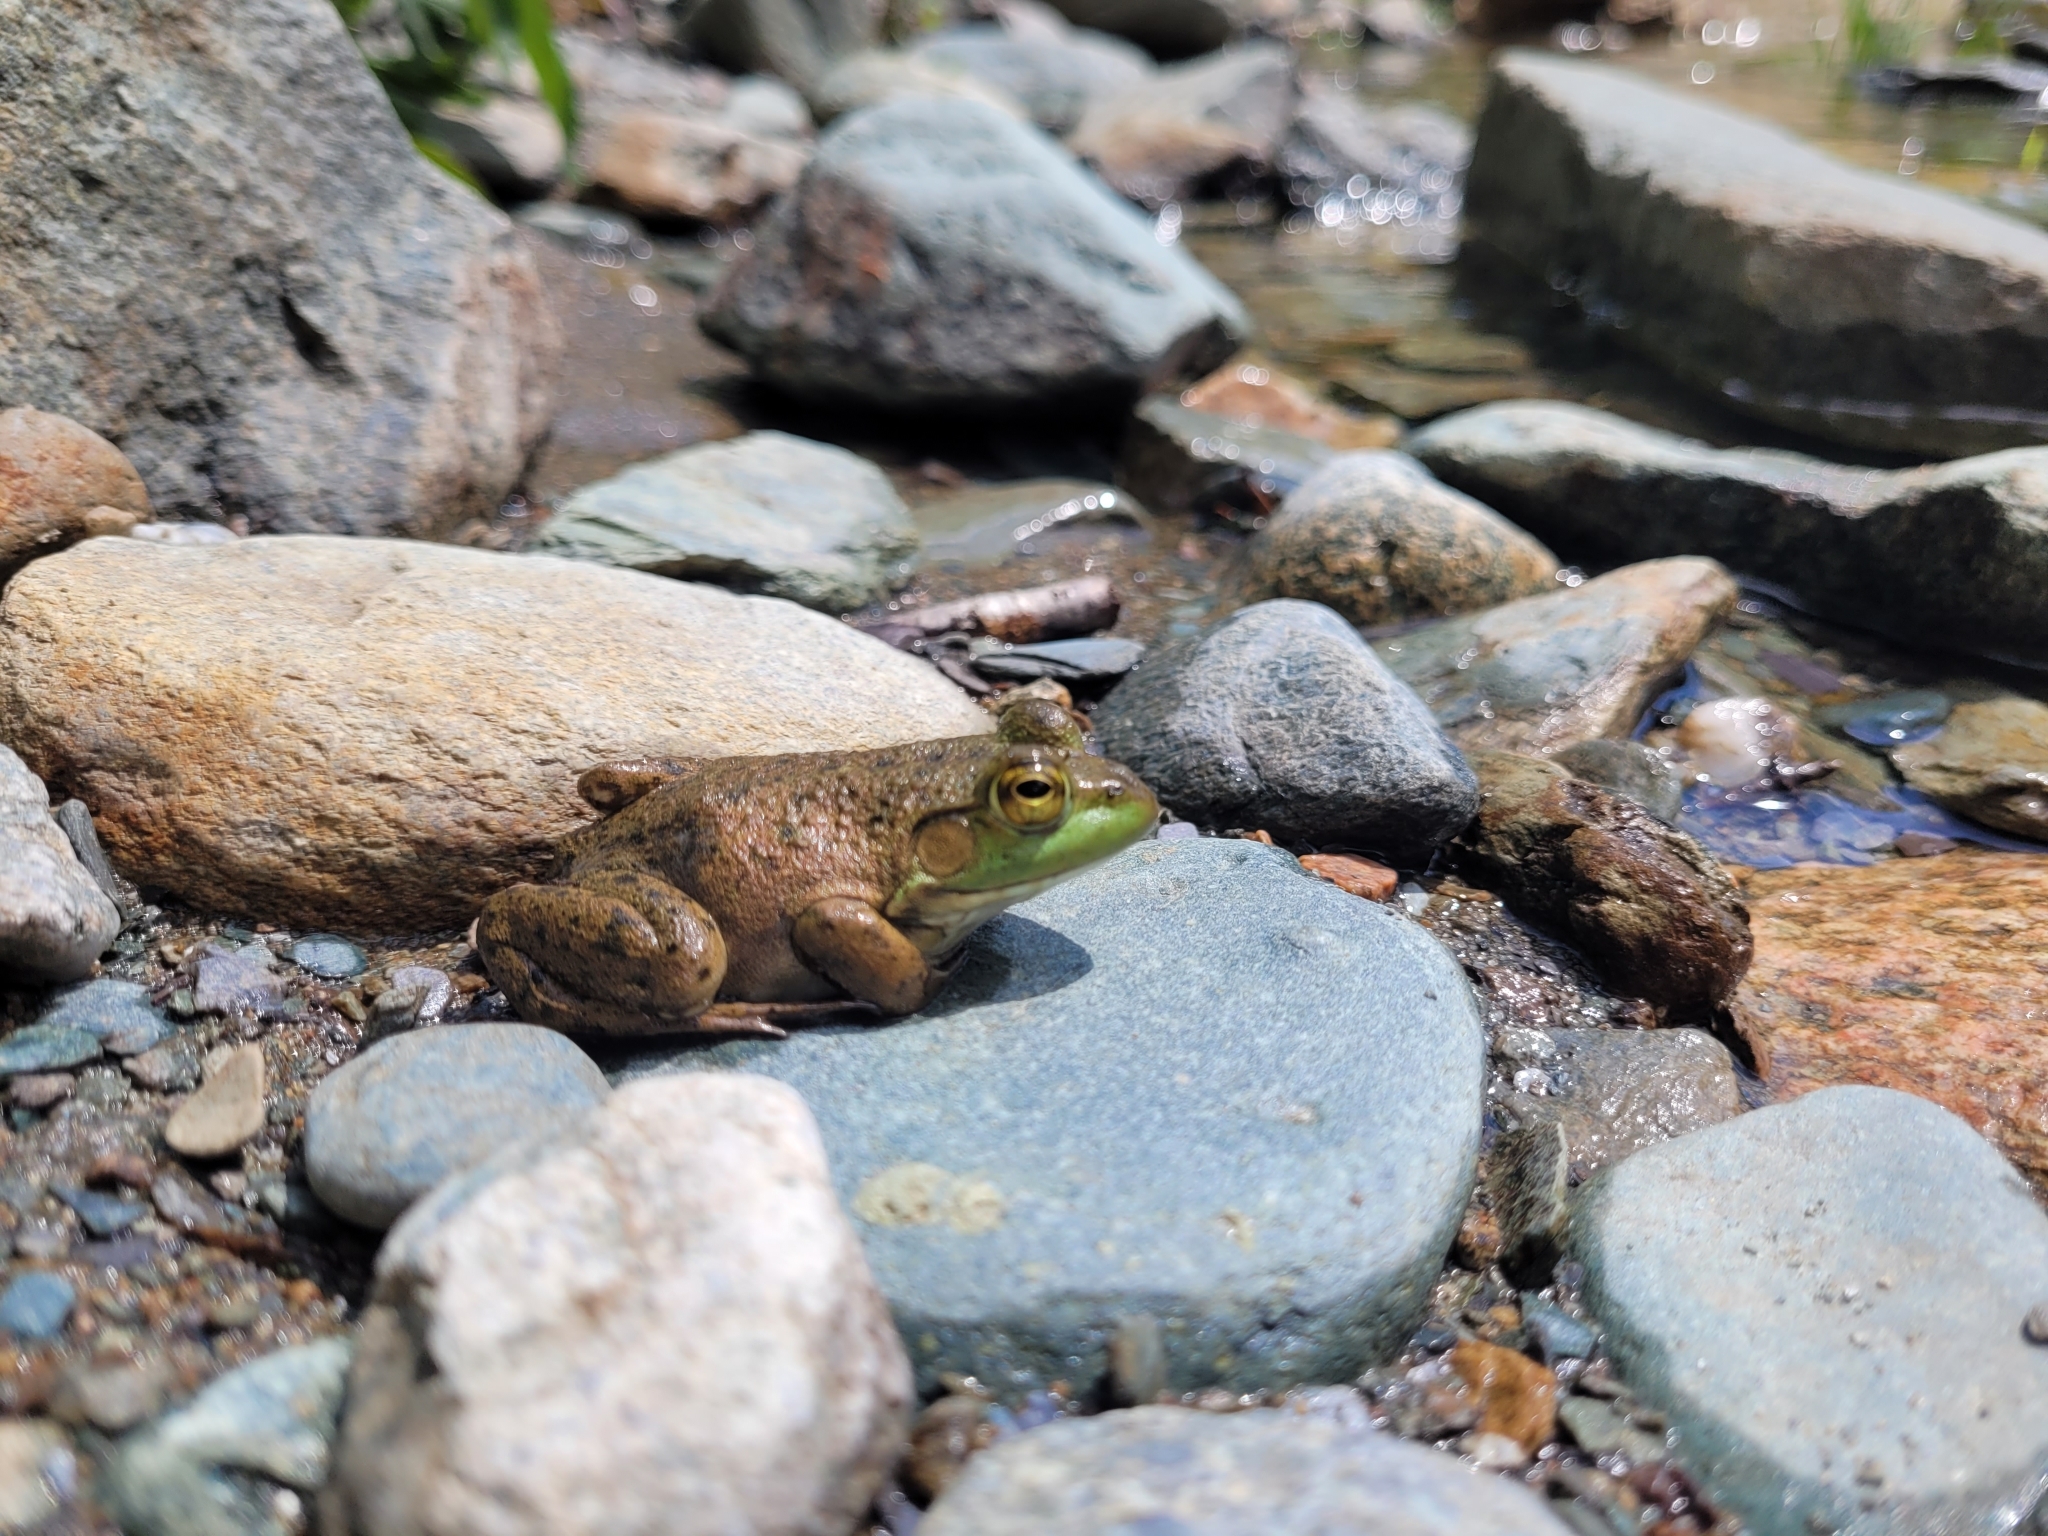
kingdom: Animalia
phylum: Chordata
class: Amphibia
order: Anura
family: Ranidae
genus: Lithobates
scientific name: Lithobates catesbeianus
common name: American bullfrog
